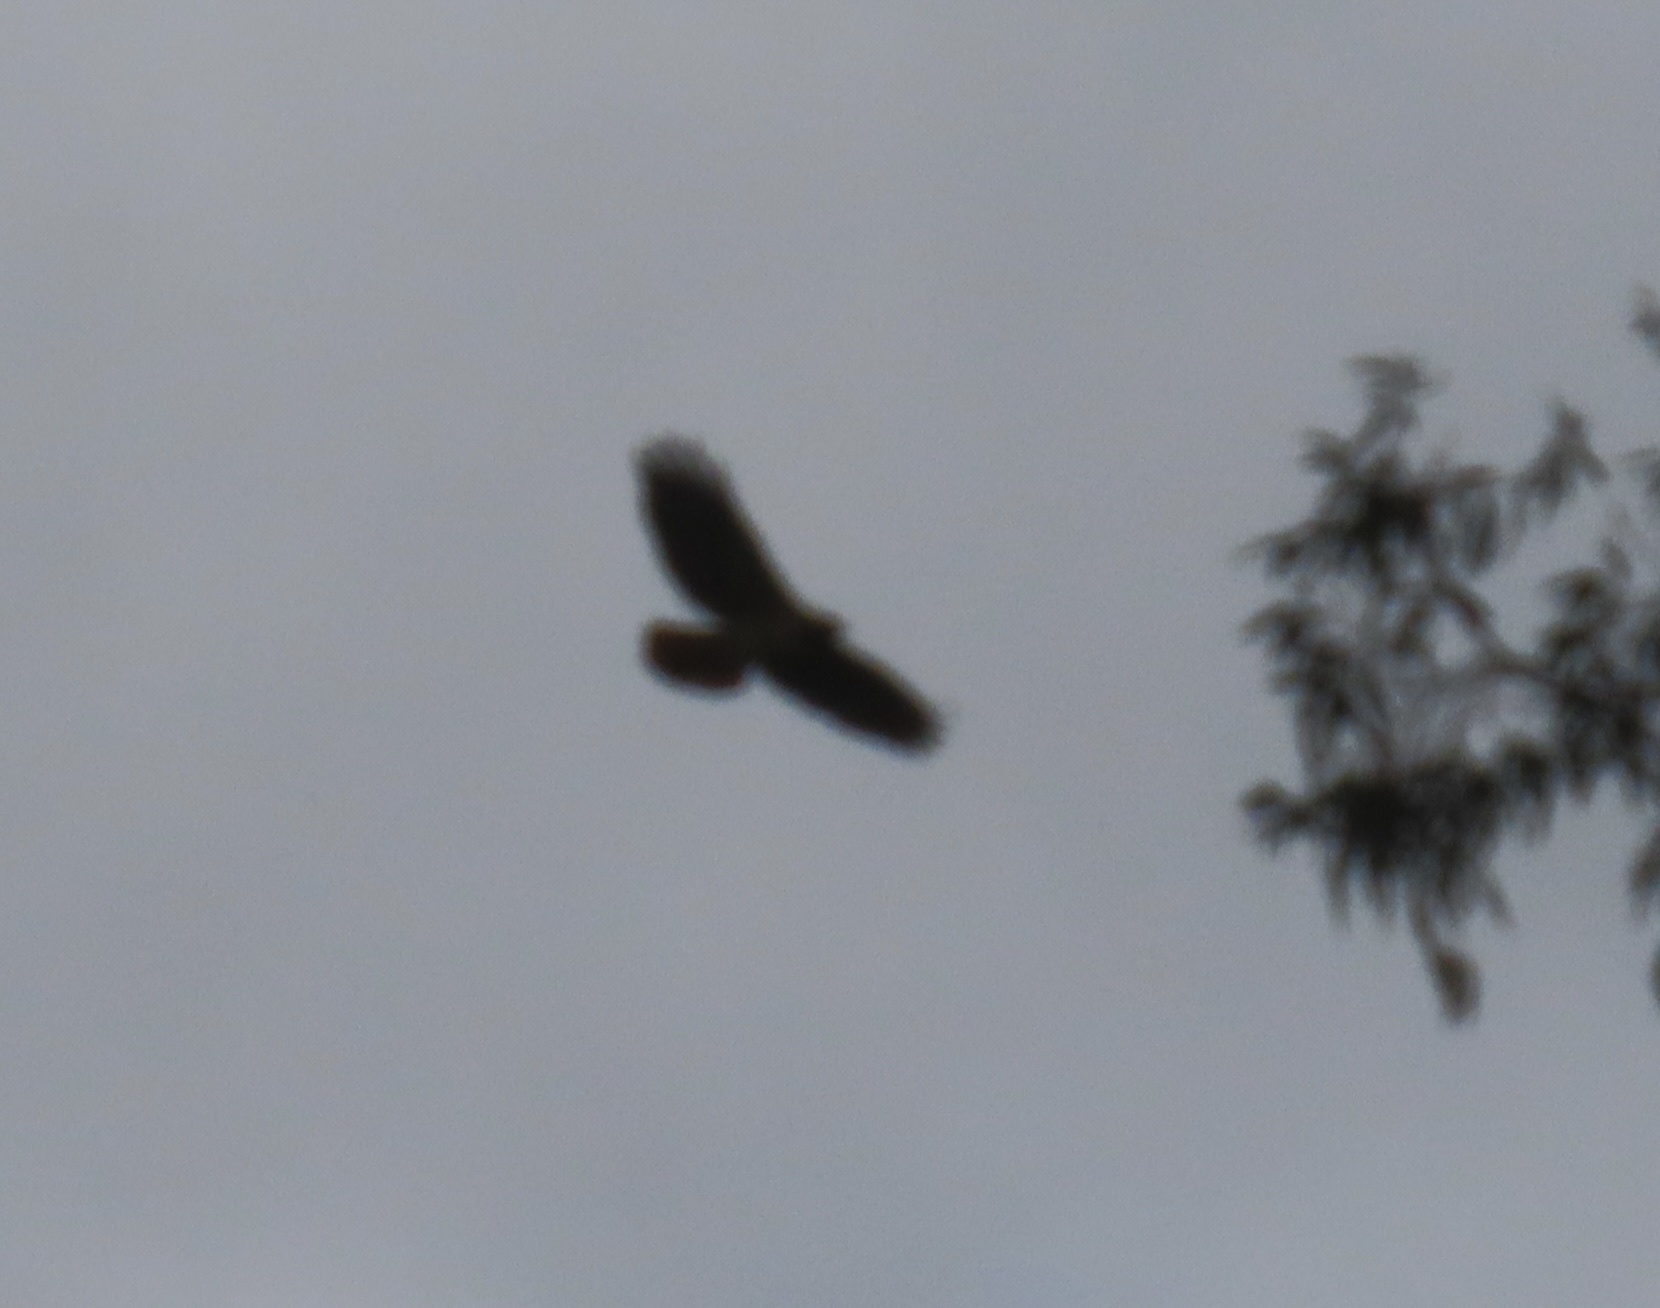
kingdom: Animalia
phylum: Chordata
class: Aves
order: Accipitriformes
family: Accipitridae
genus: Buteo
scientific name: Buteo jamaicensis
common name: Red-tailed hawk
